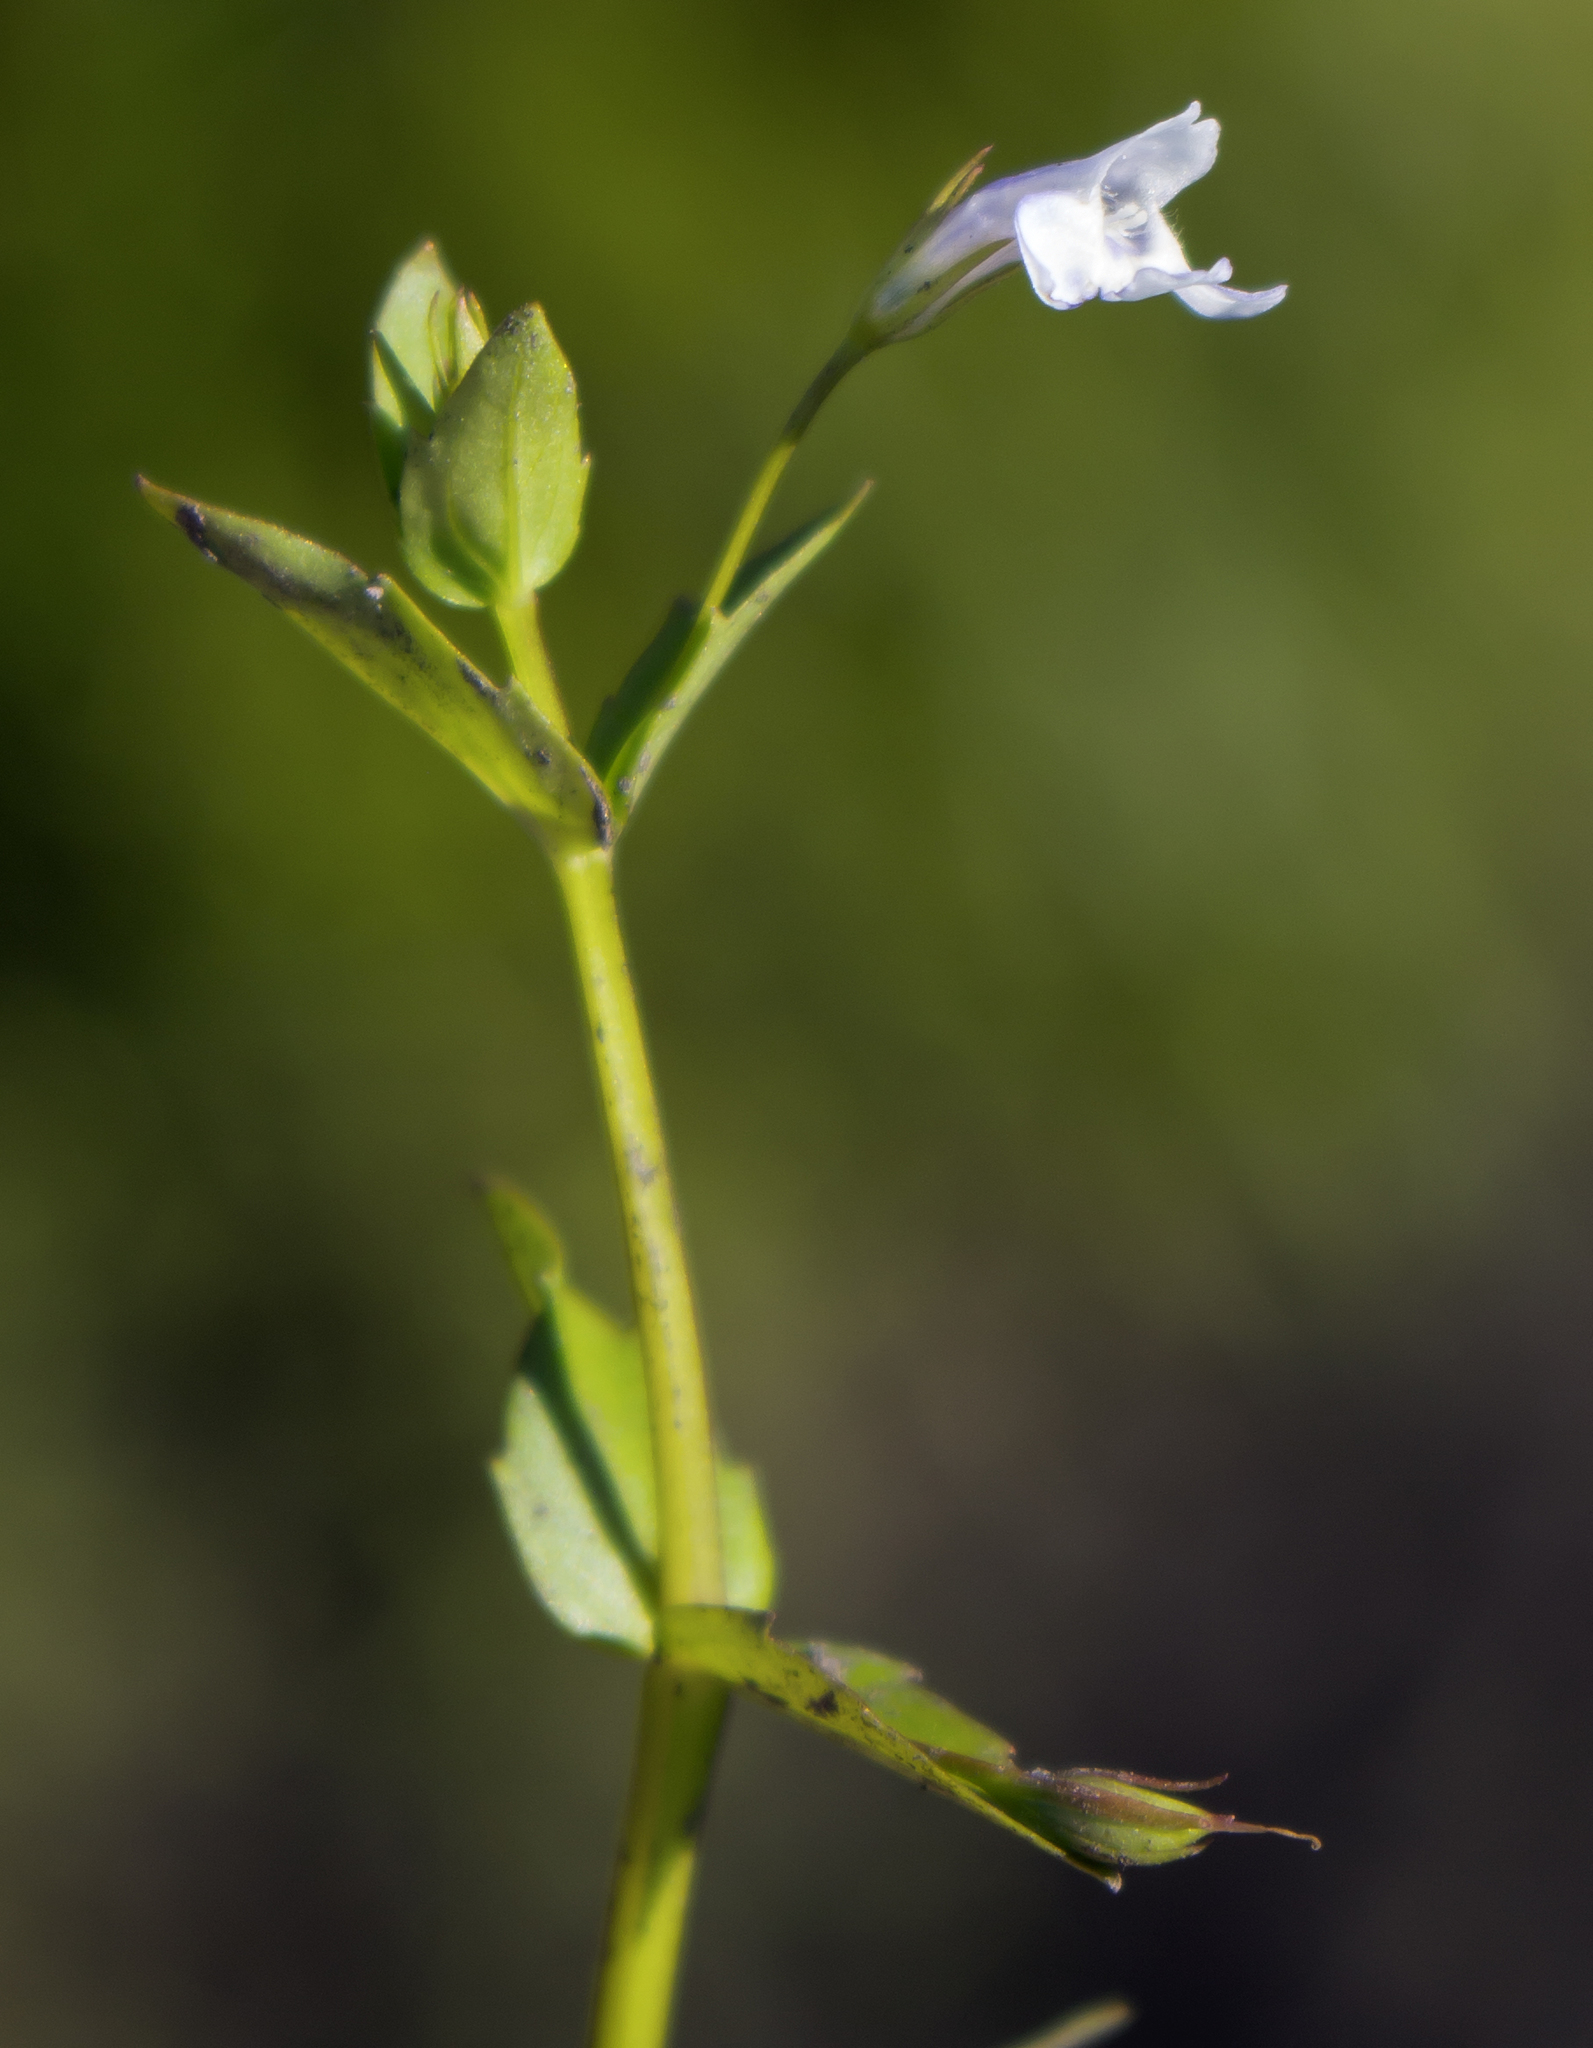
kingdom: Plantae
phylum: Tracheophyta
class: Magnoliopsida
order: Lamiales
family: Linderniaceae
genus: Lindernia
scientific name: Lindernia dubia
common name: Annual false pimpernel
